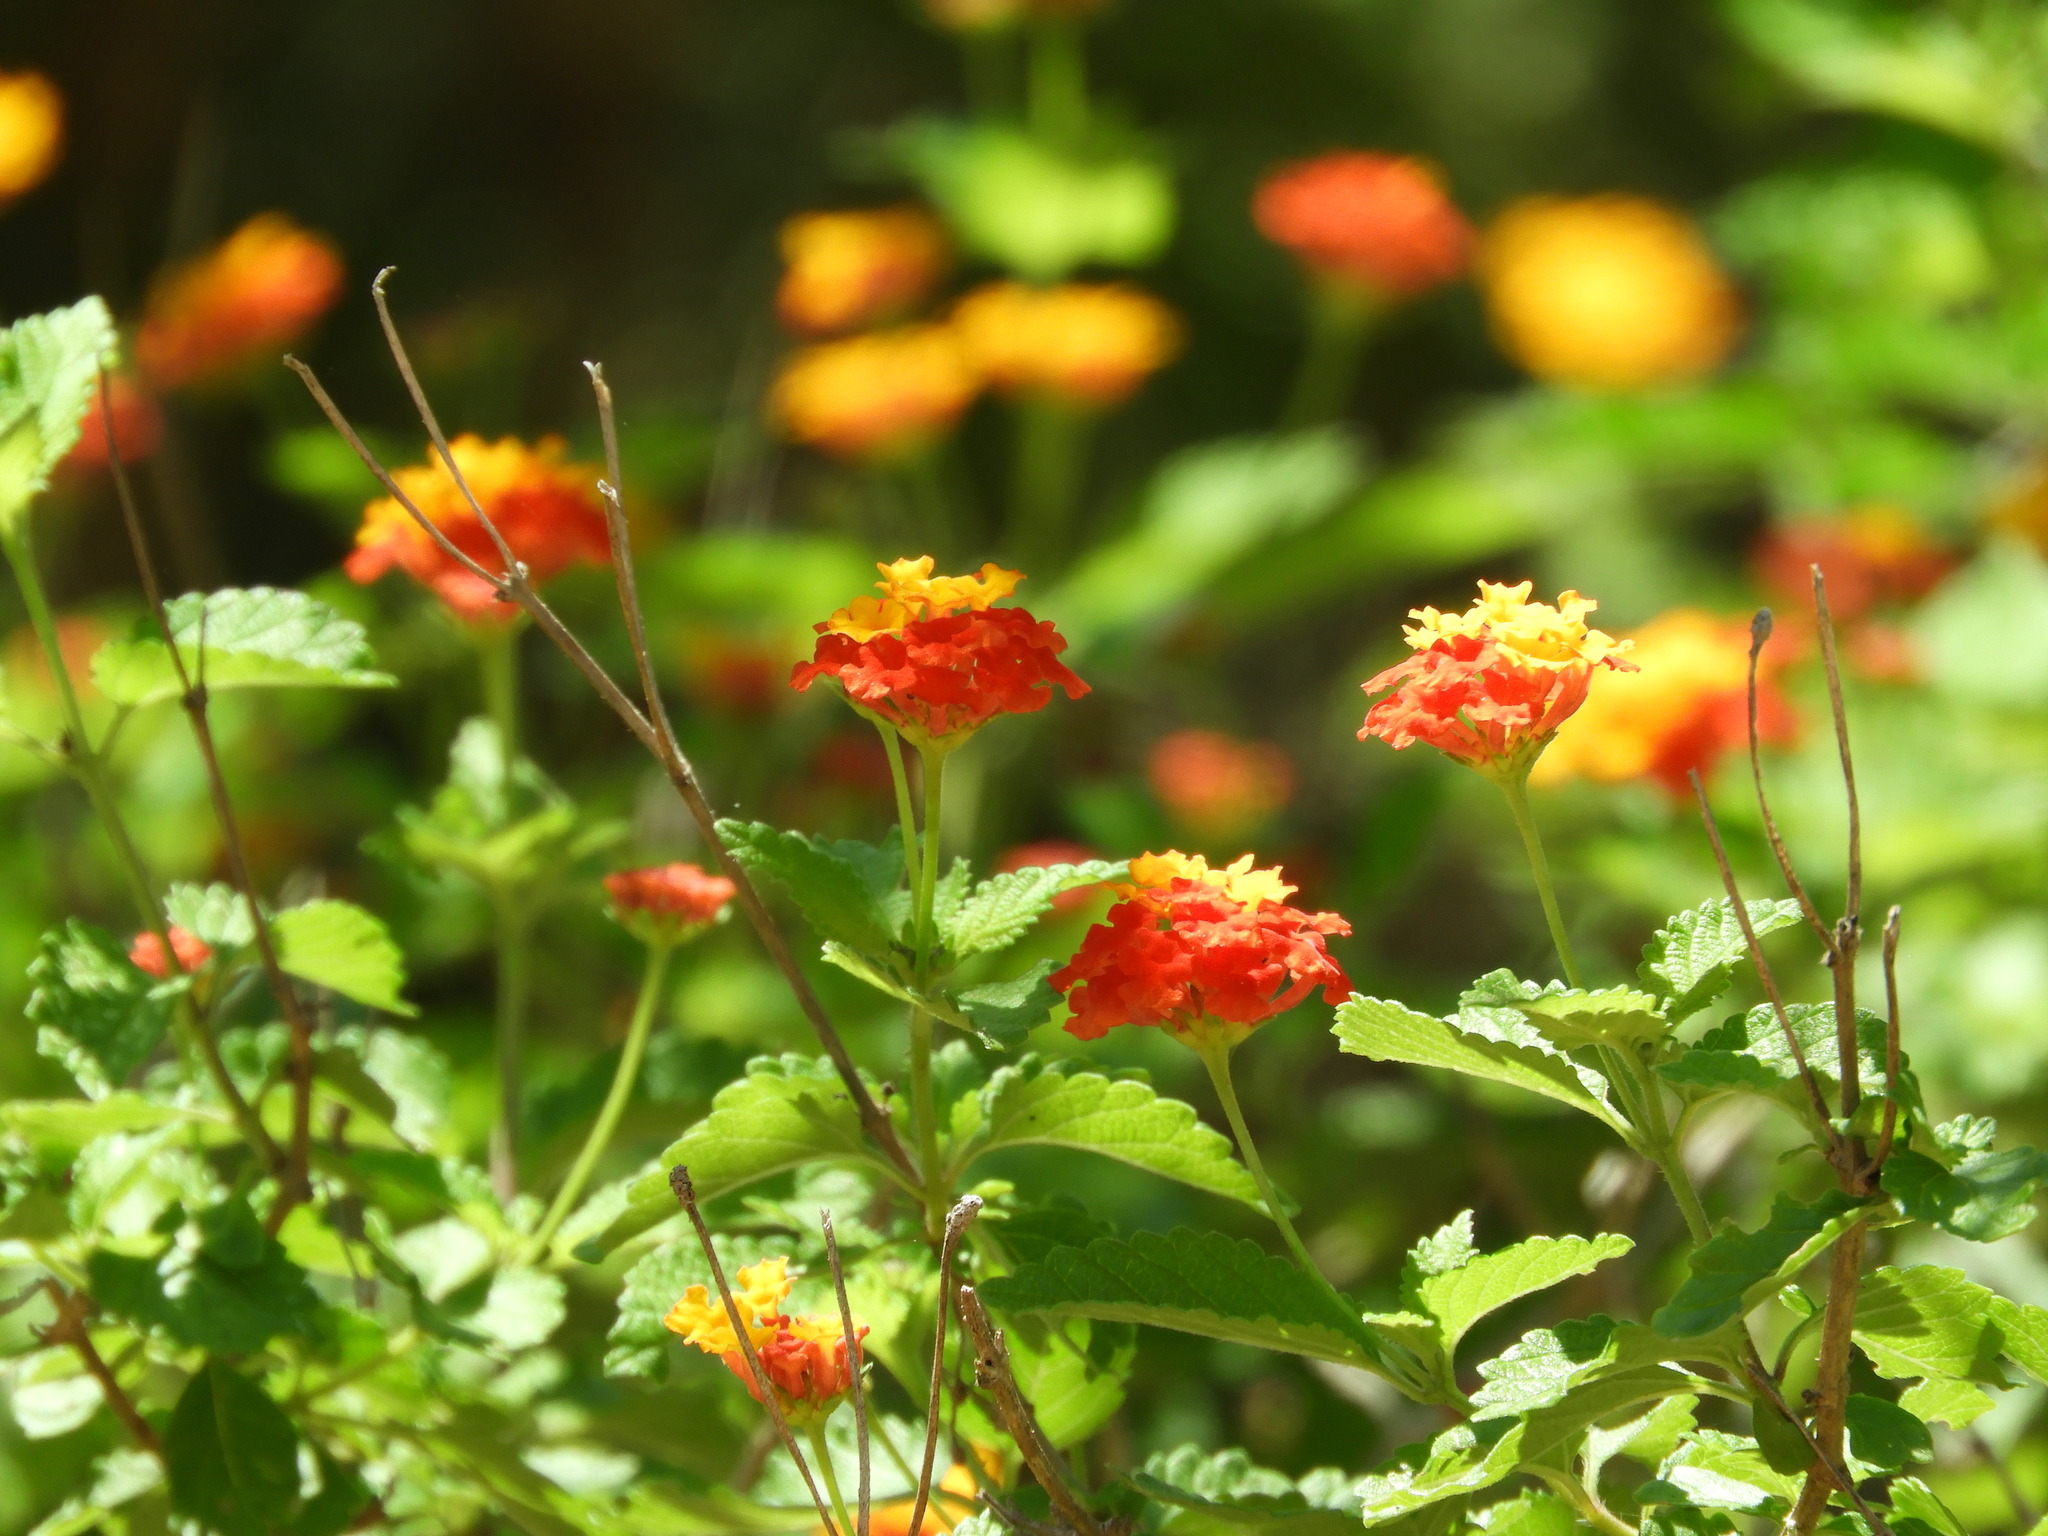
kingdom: Plantae
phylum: Tracheophyta
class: Magnoliopsida
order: Lamiales
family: Verbenaceae
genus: Lantana
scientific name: Lantana camara
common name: Lantana
